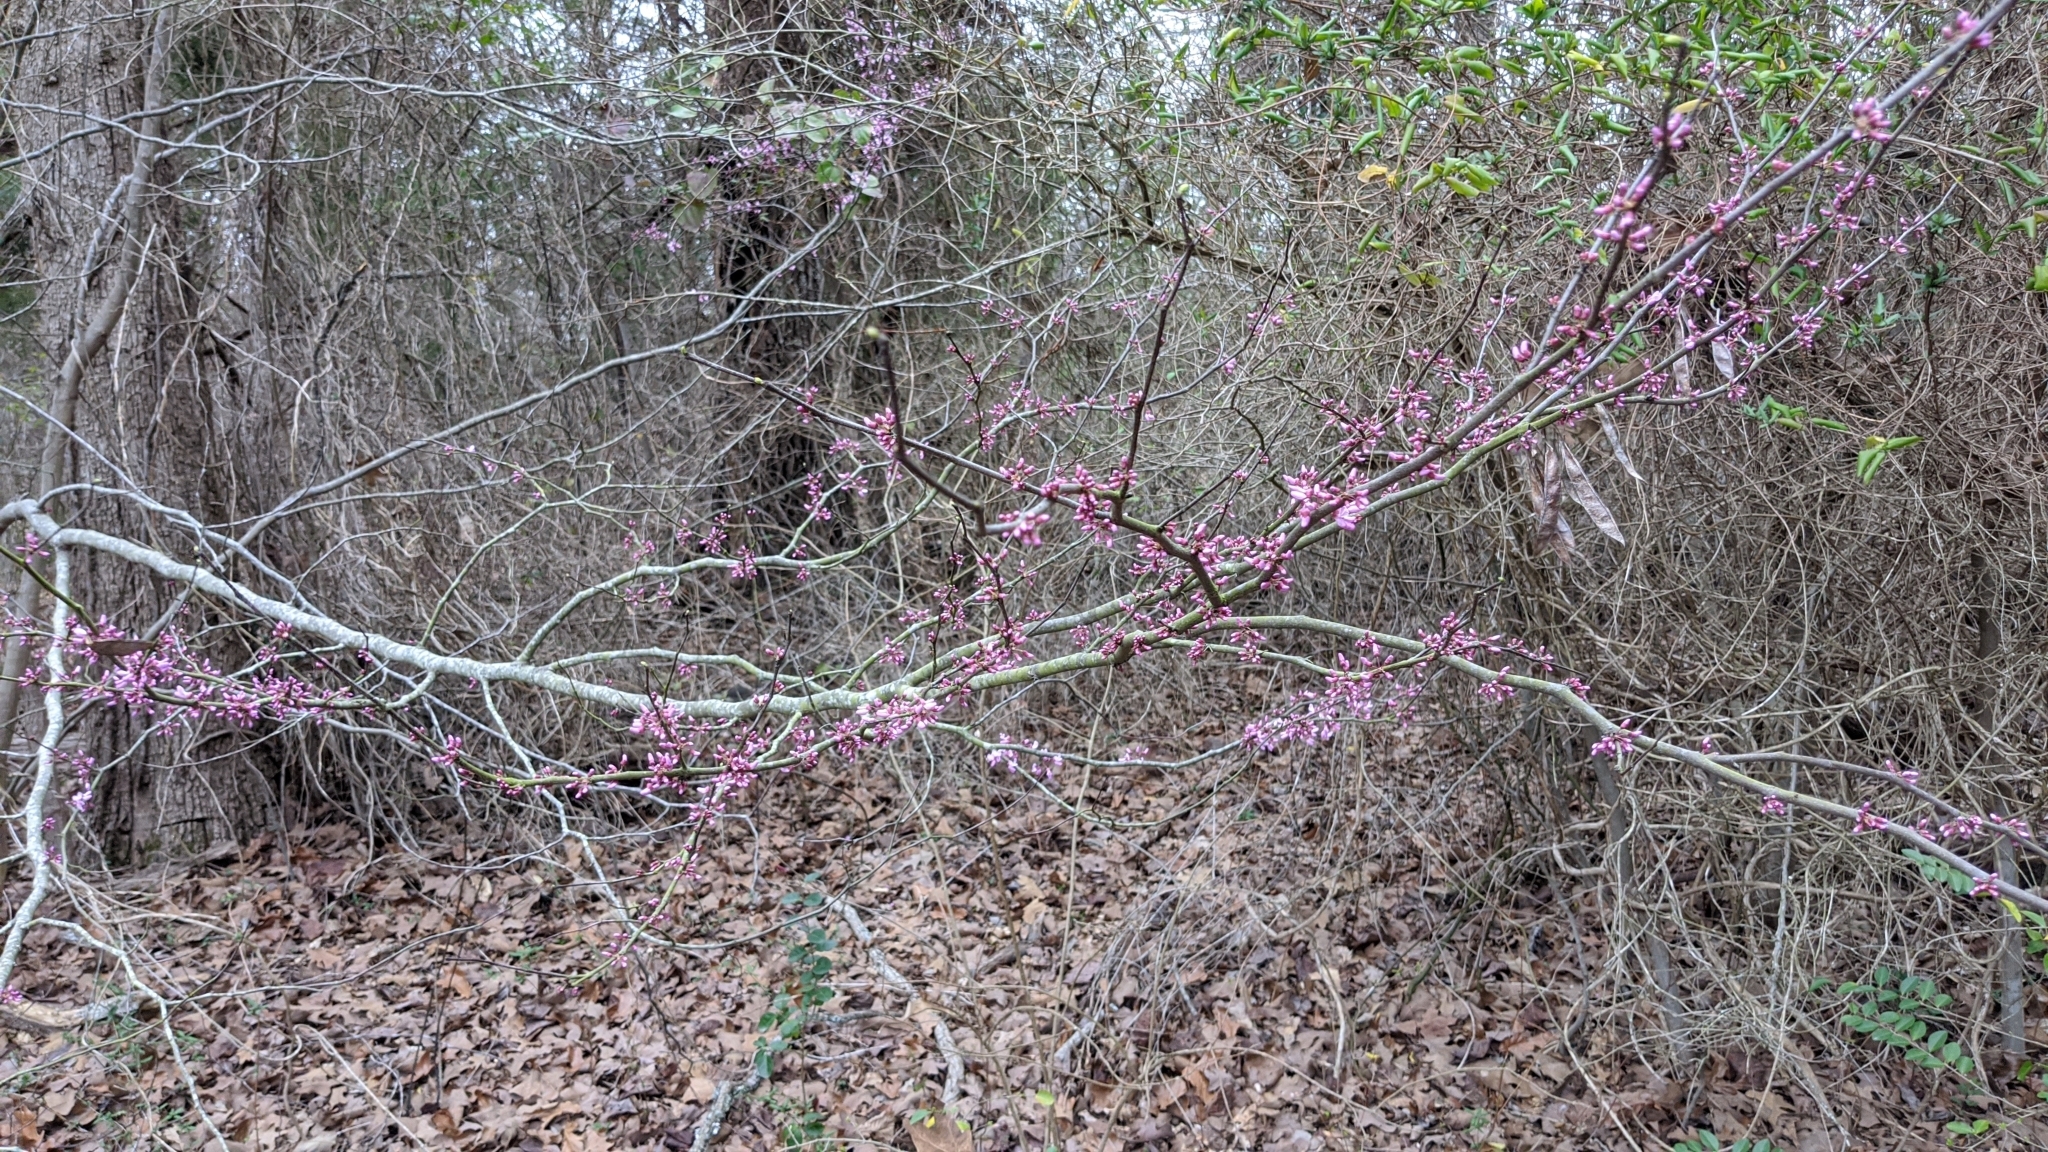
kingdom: Plantae
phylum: Tracheophyta
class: Magnoliopsida
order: Fabales
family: Fabaceae
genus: Cercis
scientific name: Cercis canadensis
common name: Eastern redbud
